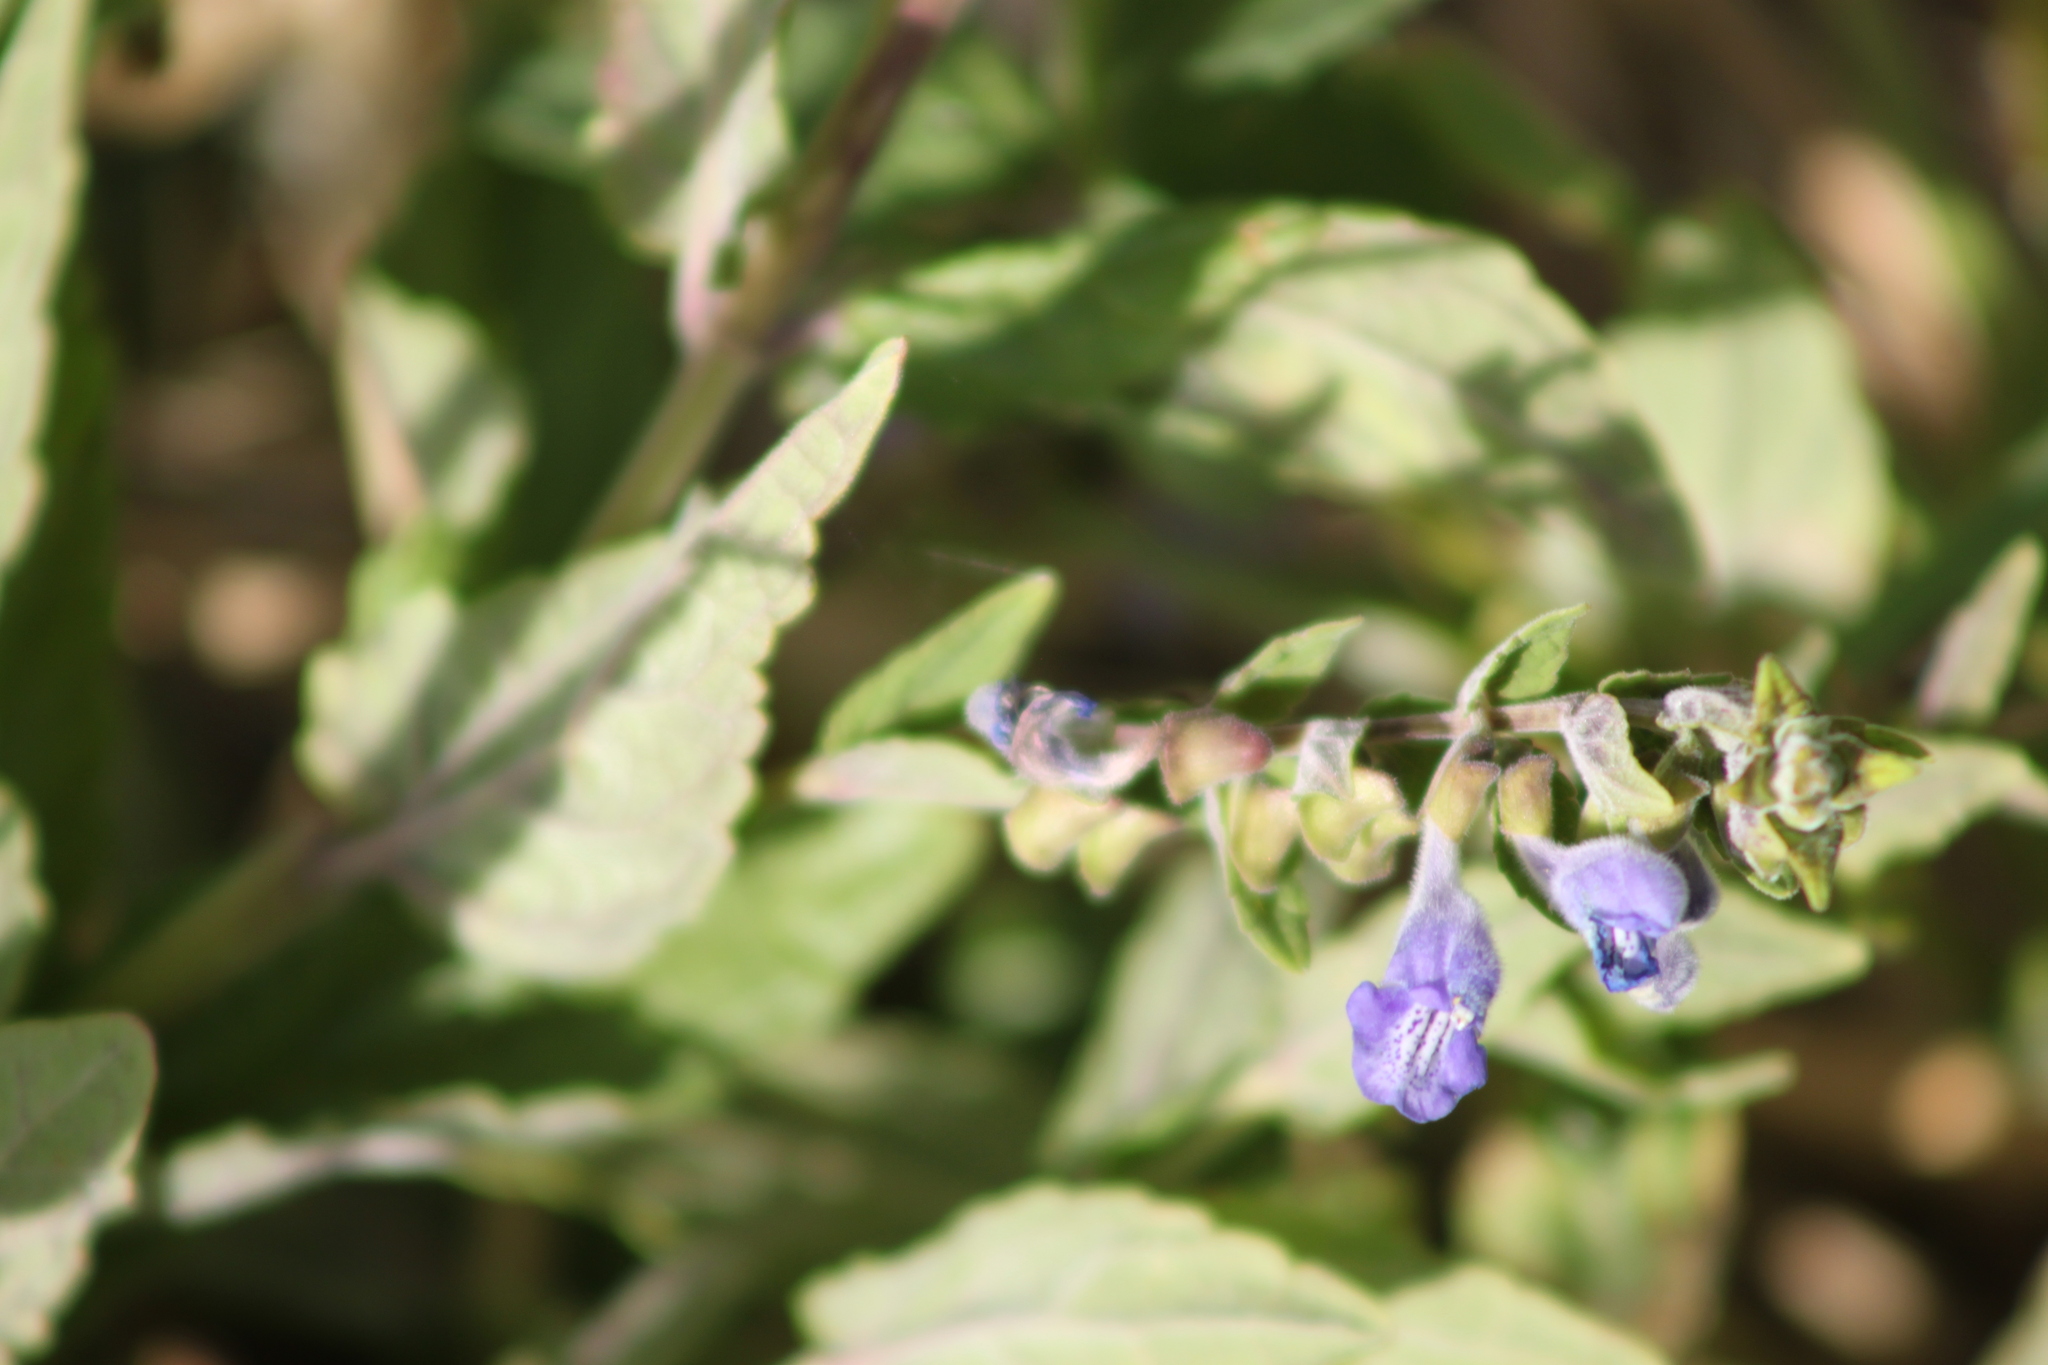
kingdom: Plantae
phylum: Tracheophyta
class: Magnoliopsida
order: Lamiales
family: Lamiaceae
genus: Scutellaria
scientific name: Scutellaria galericulata
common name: Skullcap
